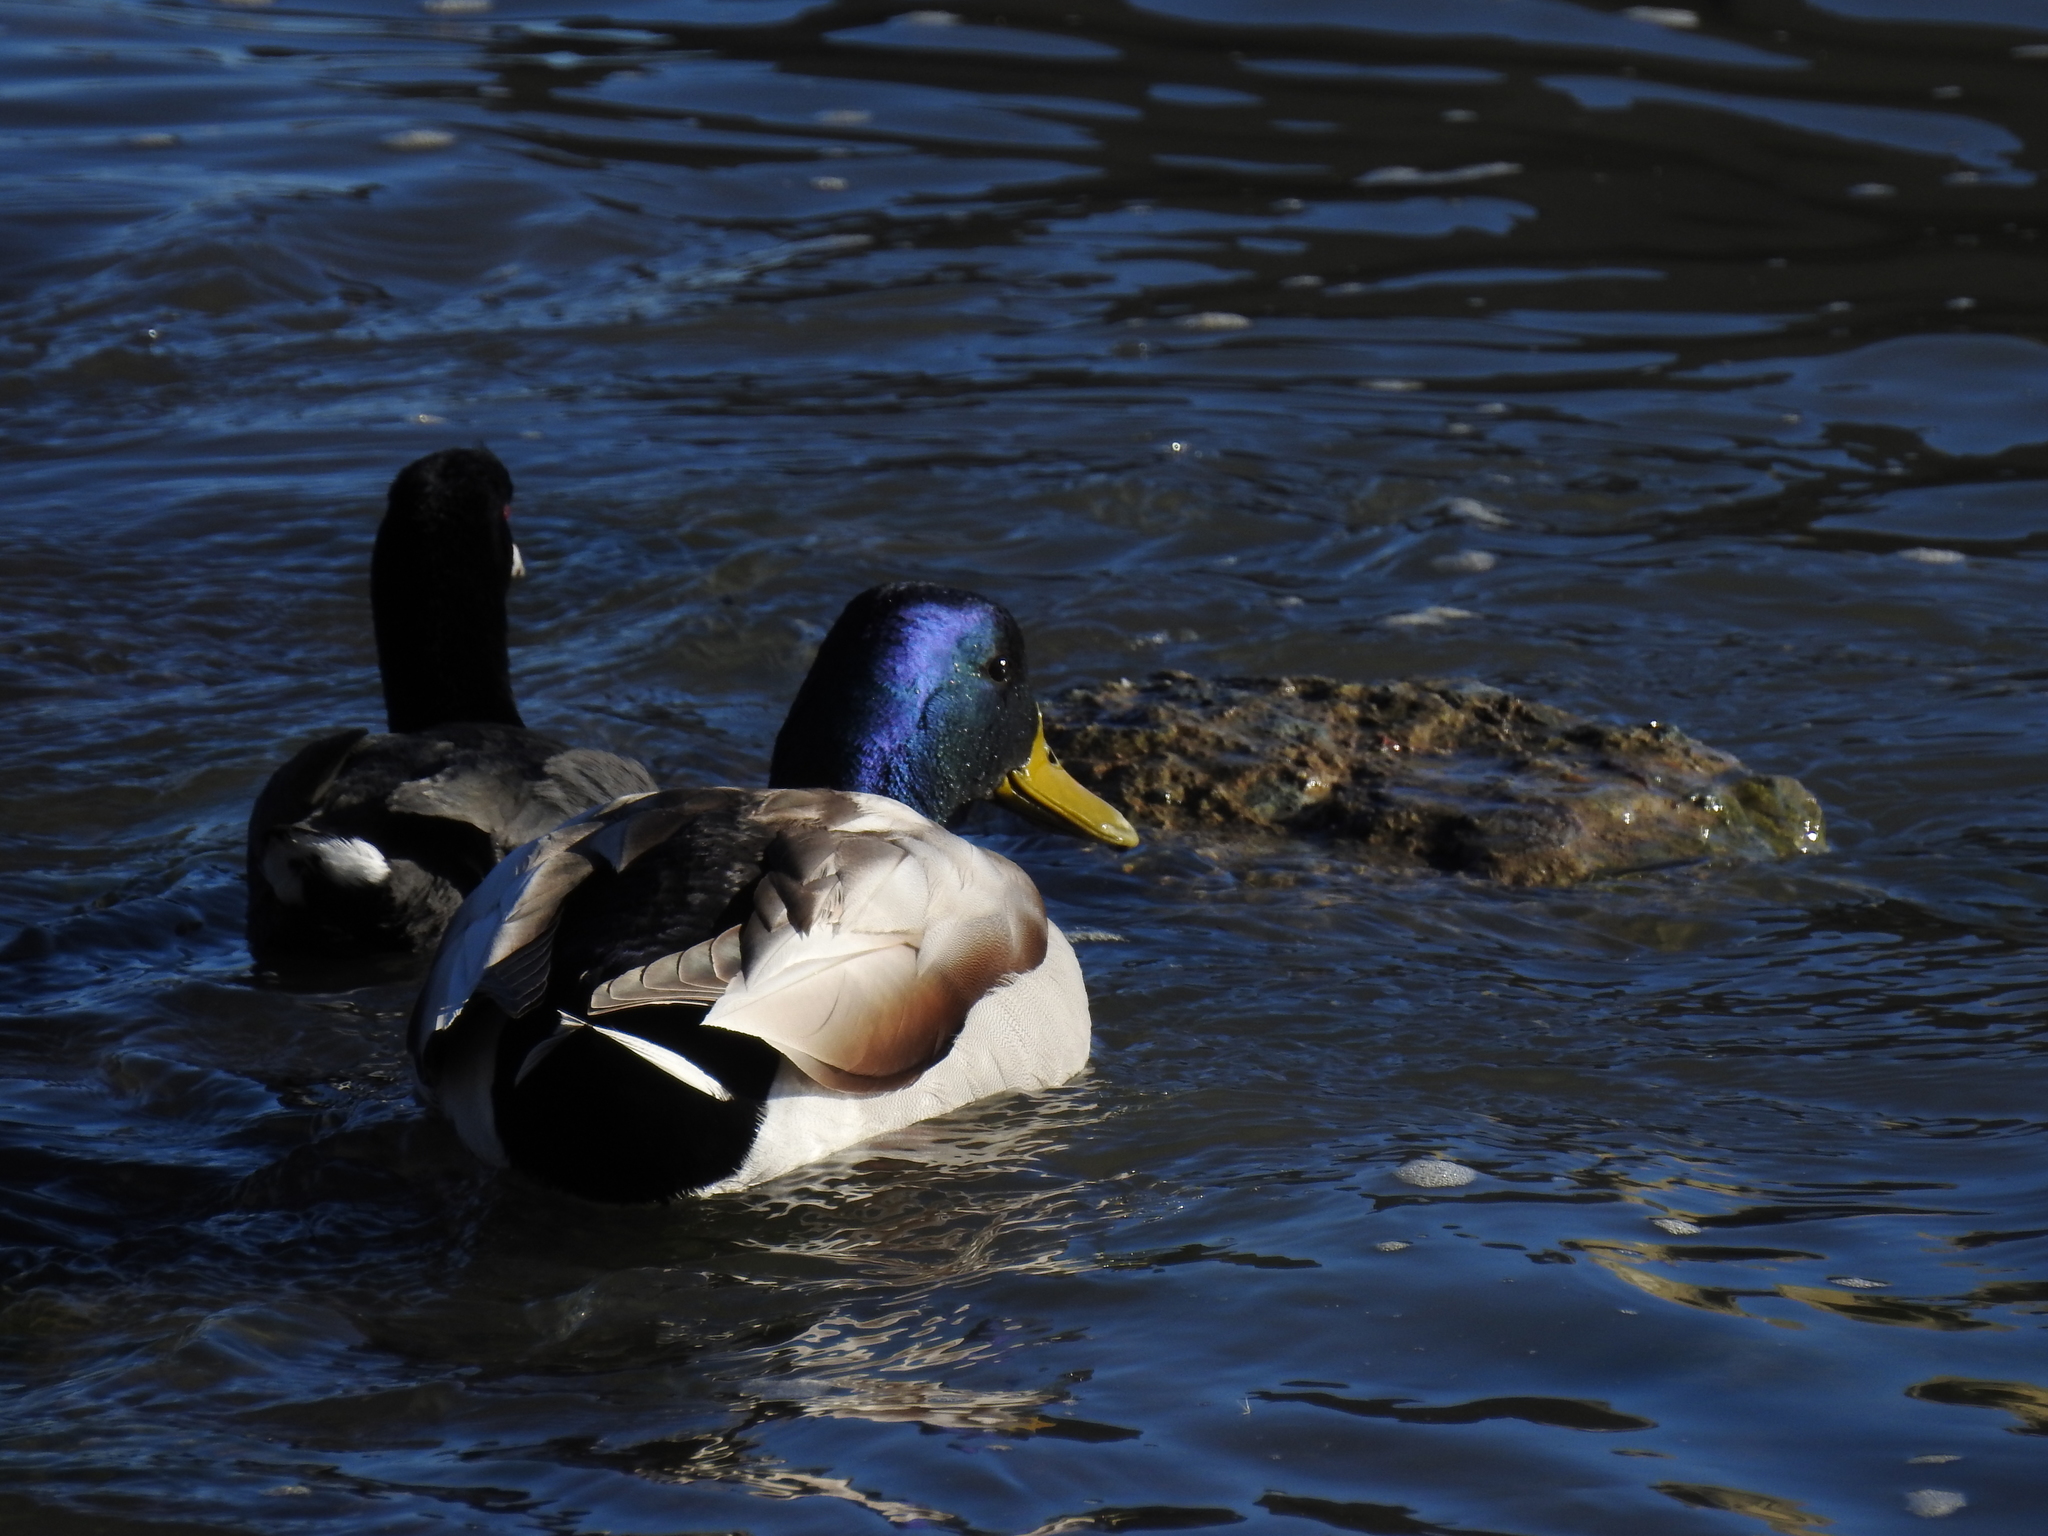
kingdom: Animalia
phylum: Chordata
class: Aves
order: Anseriformes
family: Anatidae
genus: Anas
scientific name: Anas platyrhynchos
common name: Mallard
